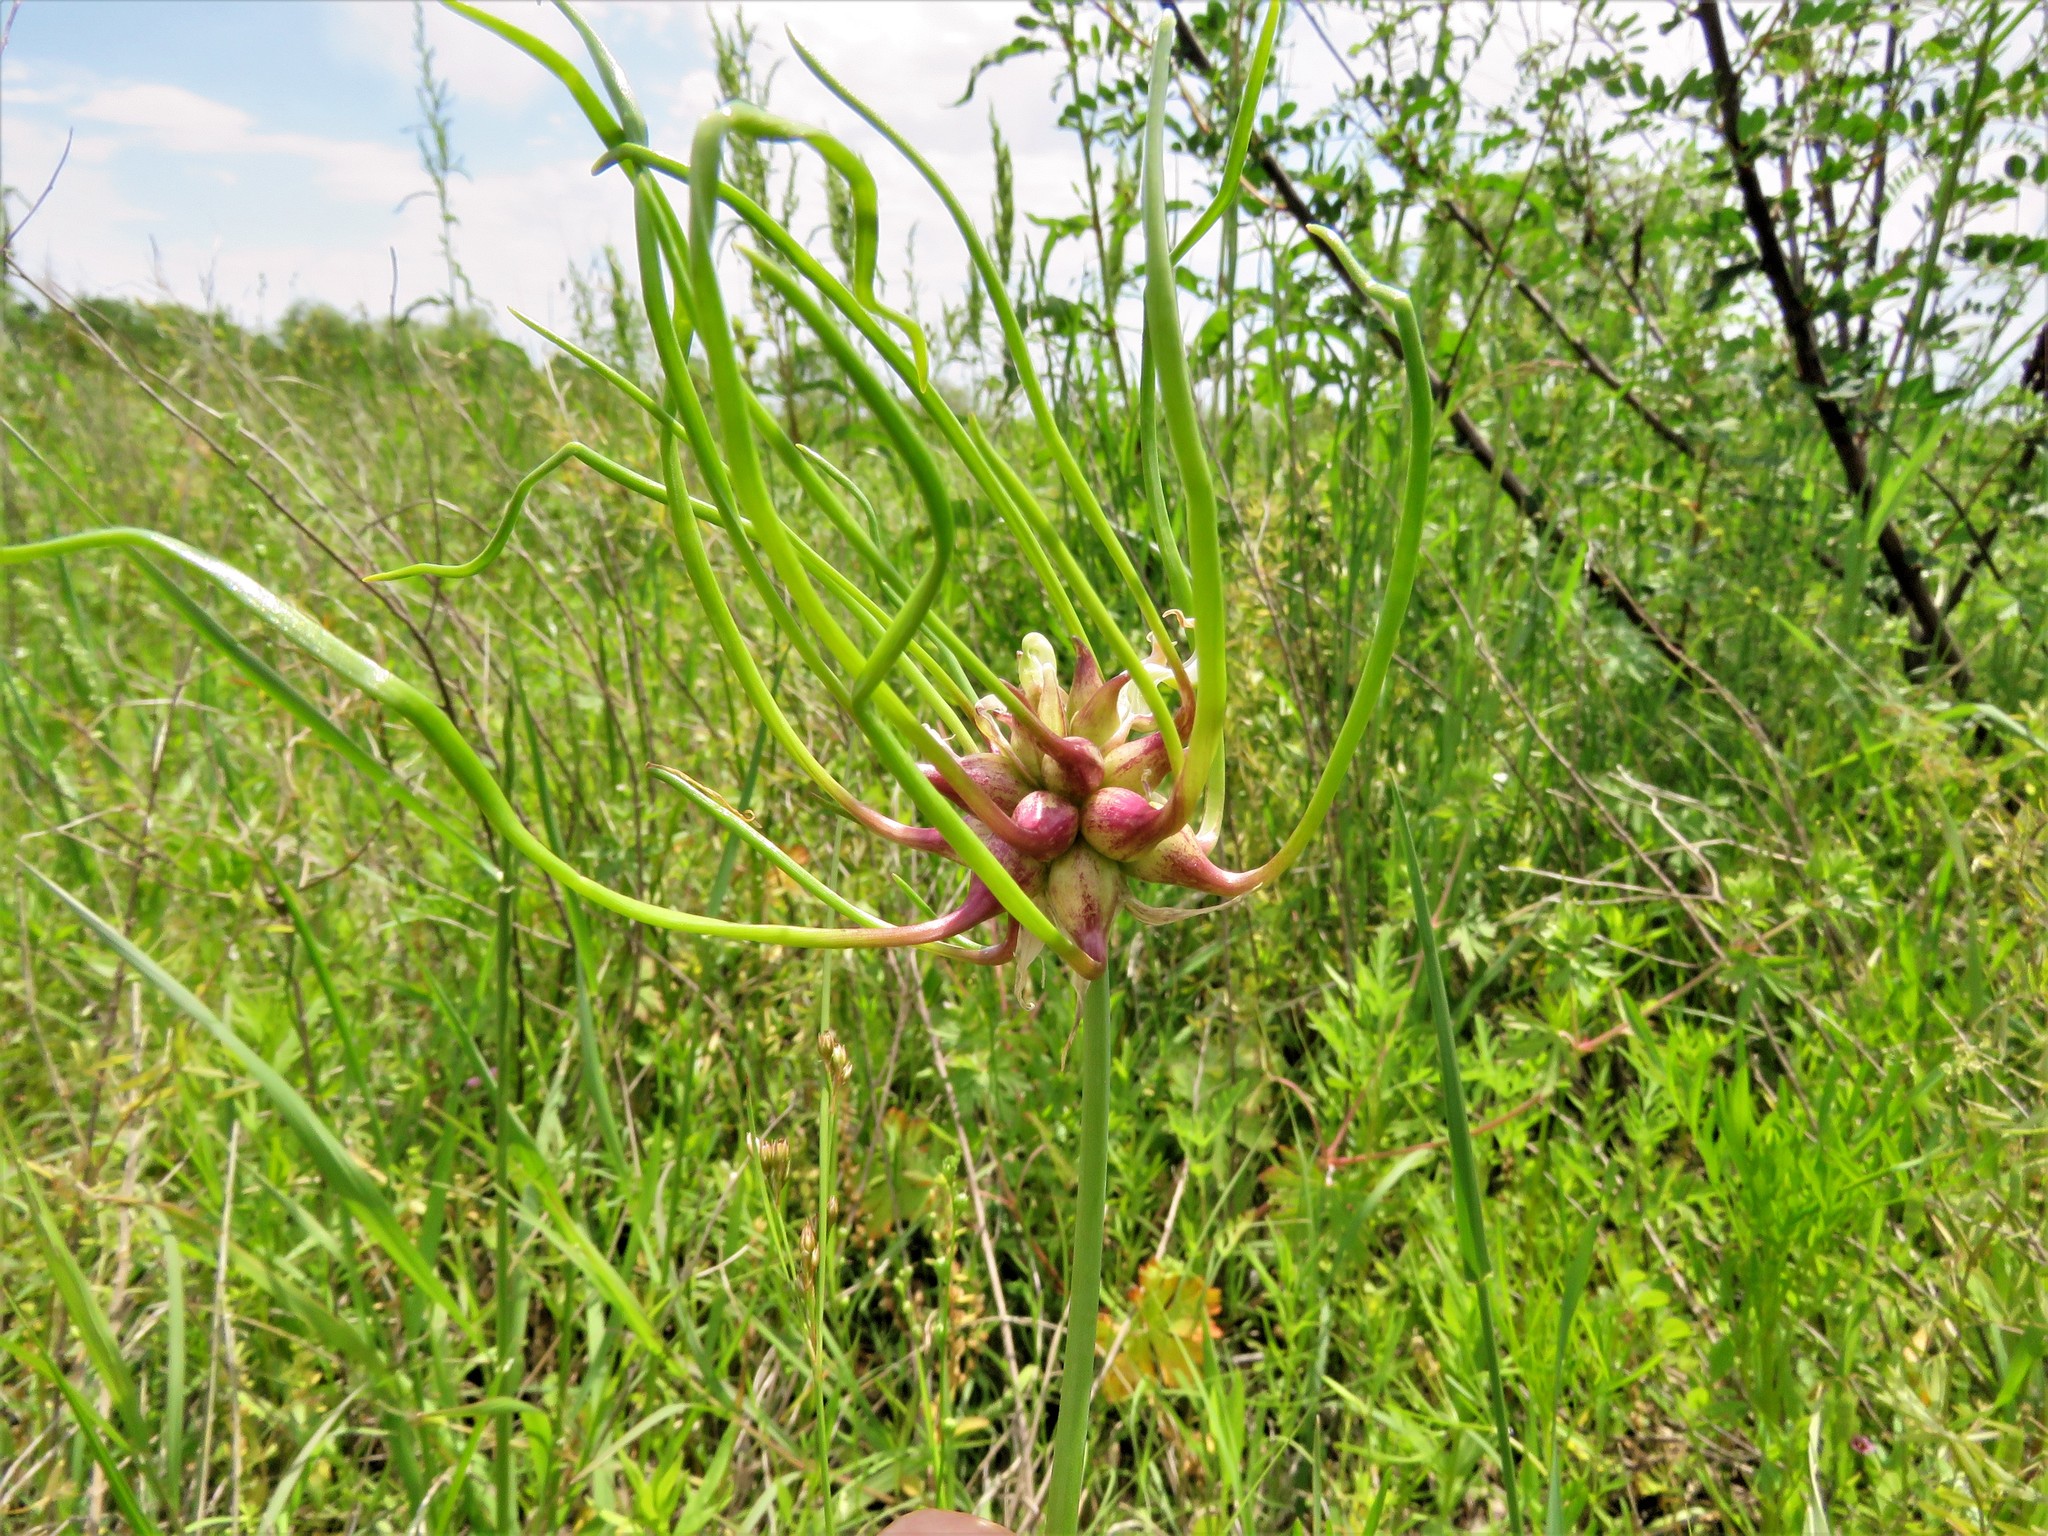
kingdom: Plantae
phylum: Tracheophyta
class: Liliopsida
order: Asparagales
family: Amaryllidaceae
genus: Allium
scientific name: Allium vineale
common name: Crow garlic
